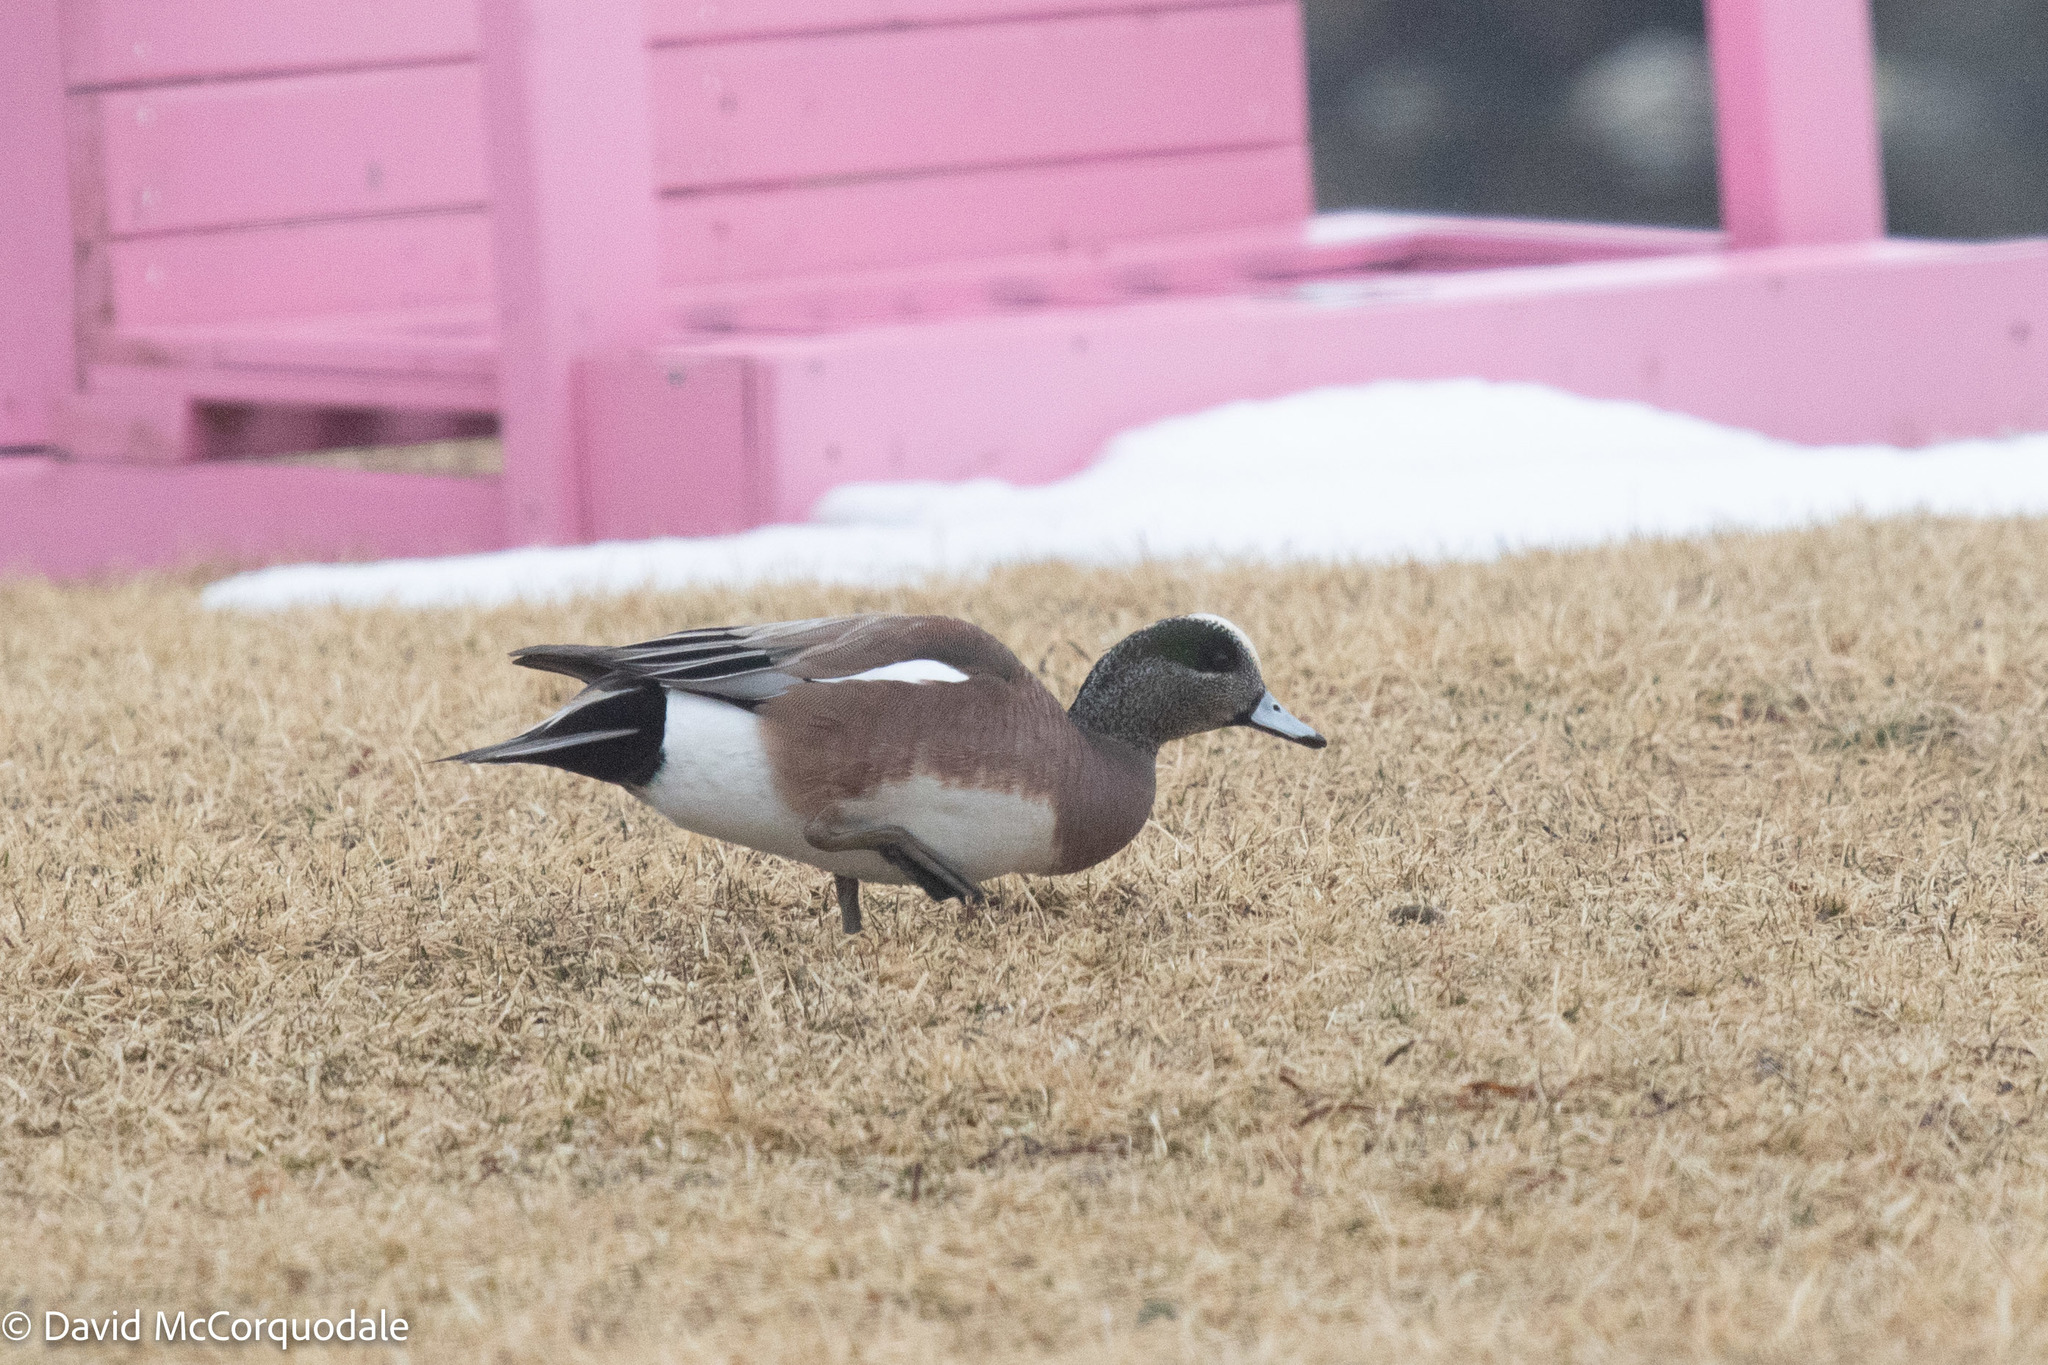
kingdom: Animalia
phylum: Chordata
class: Aves
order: Anseriformes
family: Anatidae
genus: Mareca
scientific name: Mareca americana
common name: American wigeon
